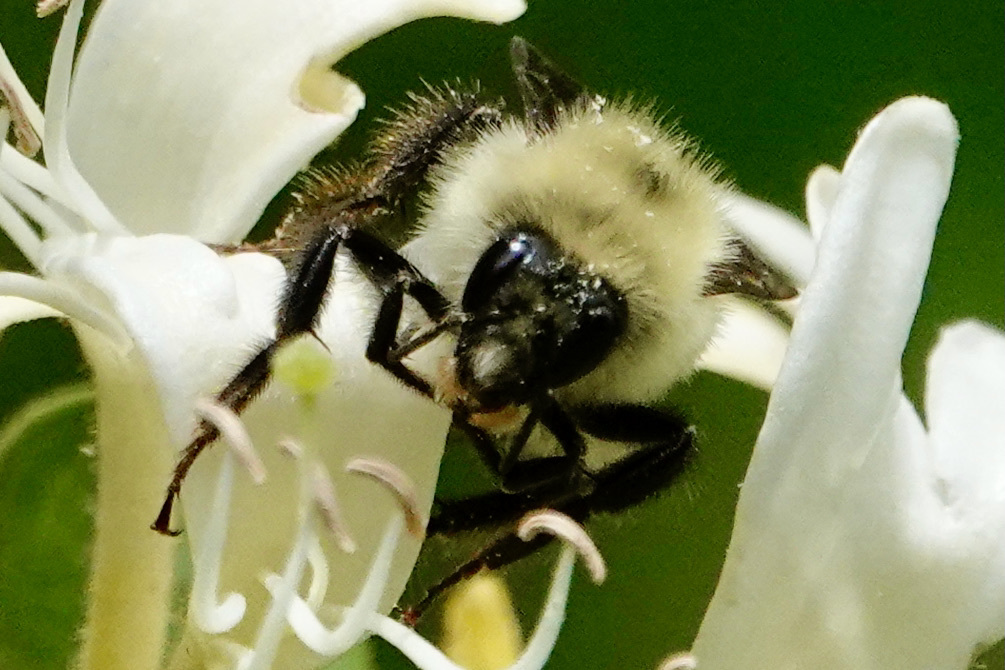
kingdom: Animalia
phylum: Arthropoda
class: Insecta
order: Hymenoptera
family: Apidae
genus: Bombus
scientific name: Bombus bimaculatus
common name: Two-spotted bumble bee
